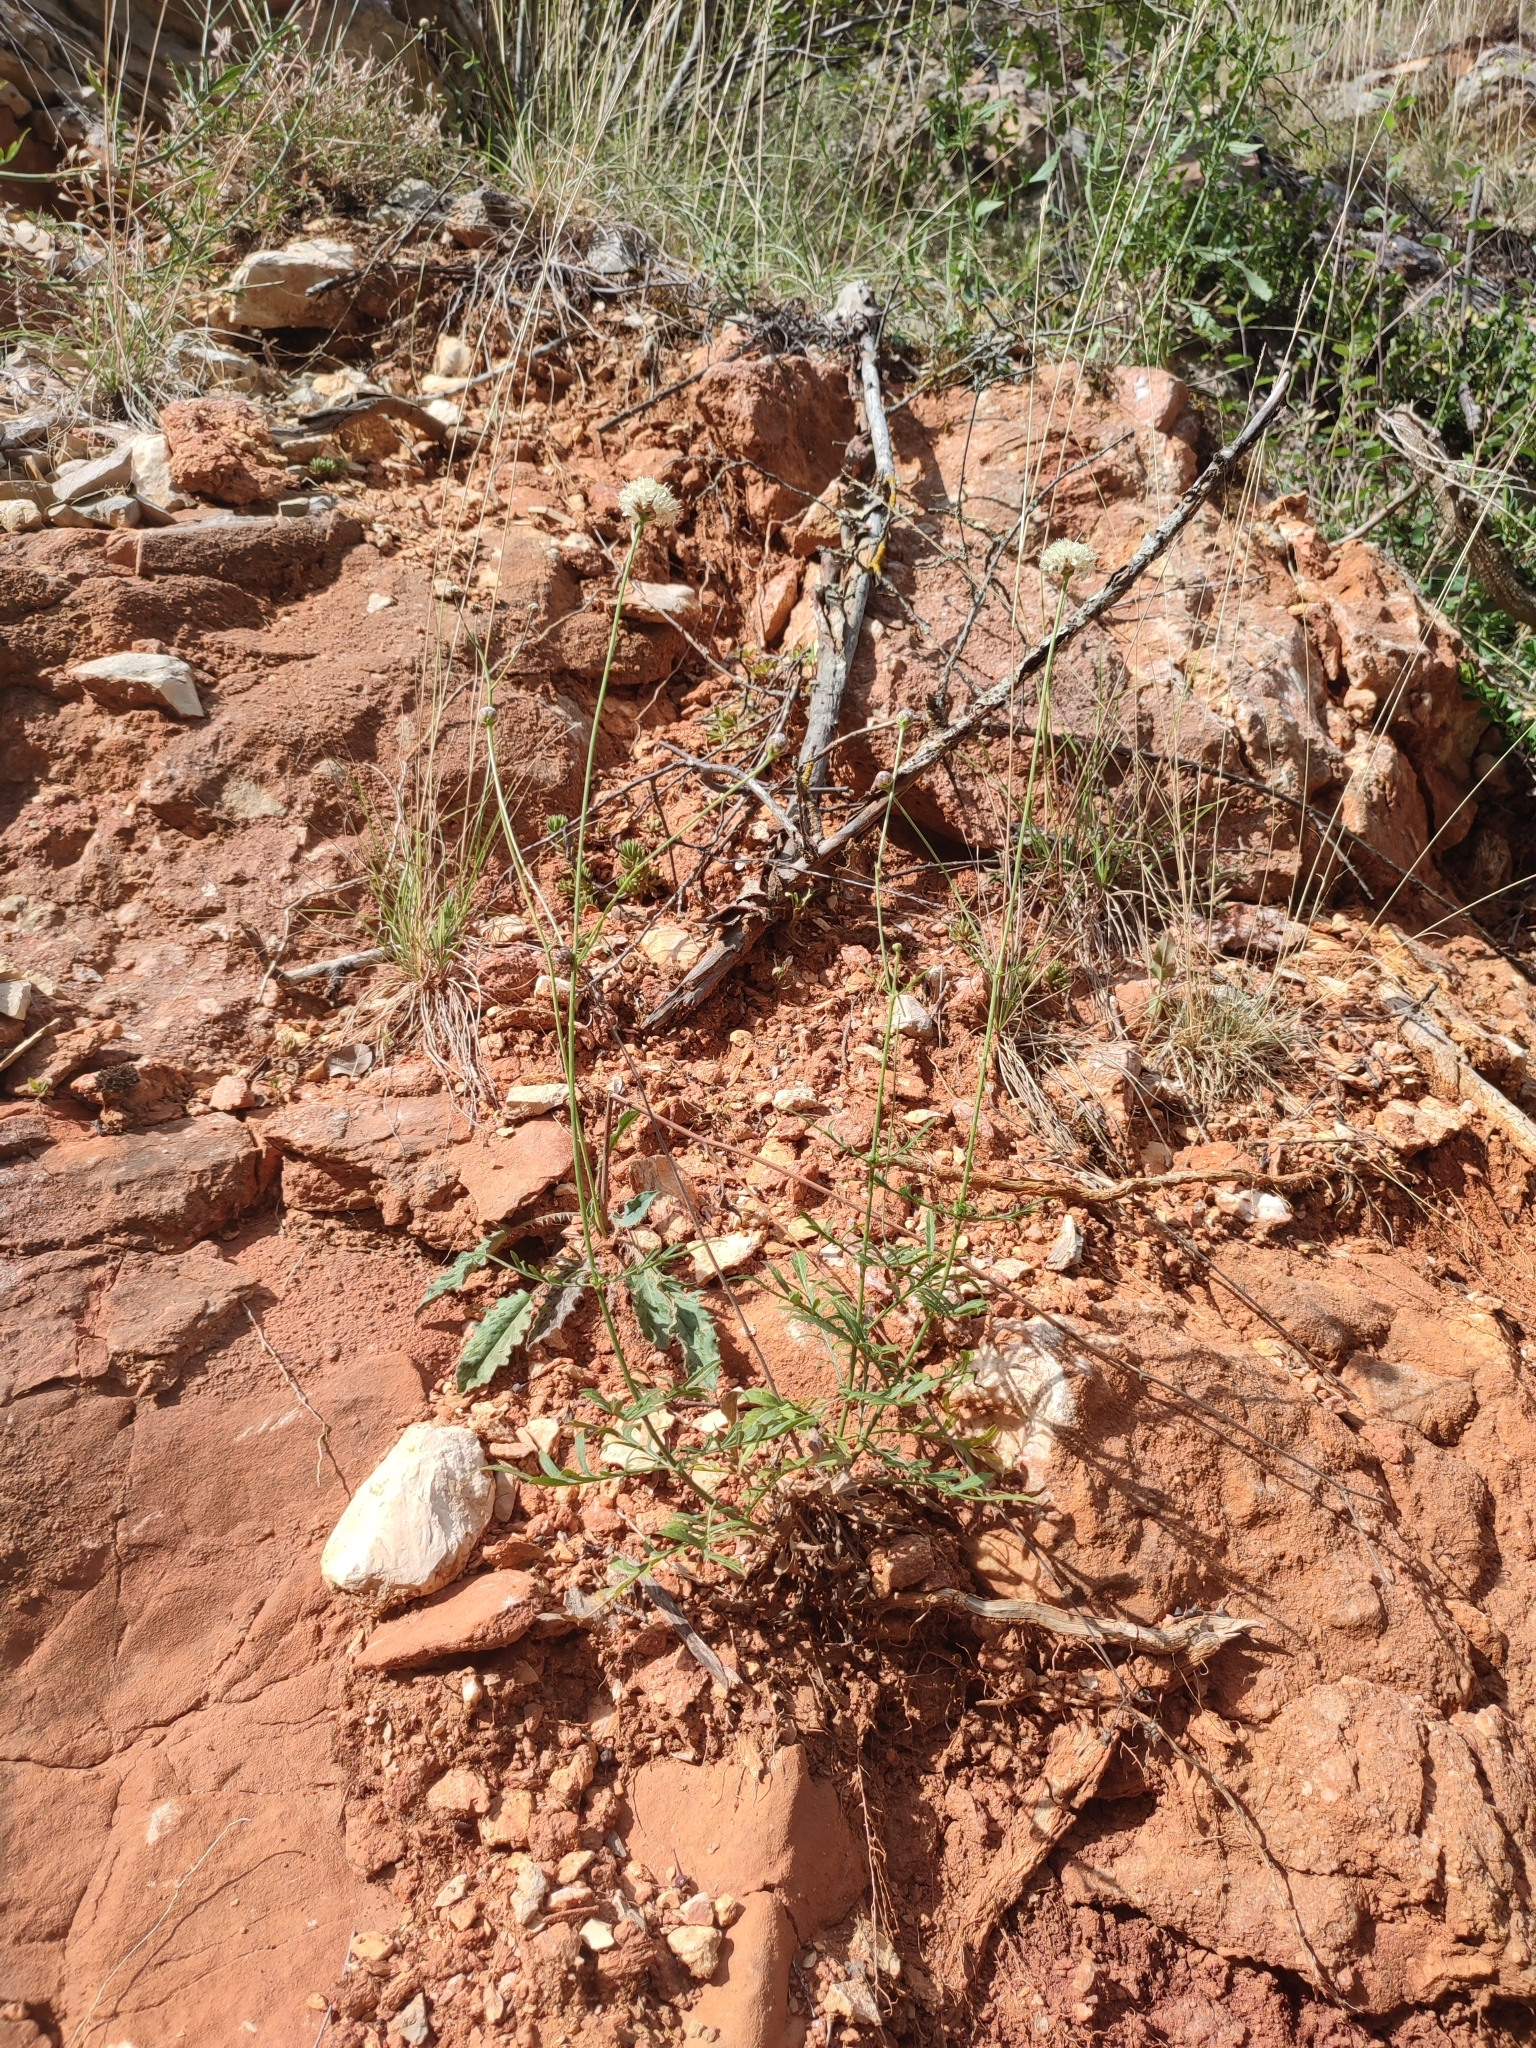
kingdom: Plantae
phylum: Tracheophyta
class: Magnoliopsida
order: Dipsacales
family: Caprifoliaceae
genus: Cephalaria
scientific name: Cephalaria leucantha
